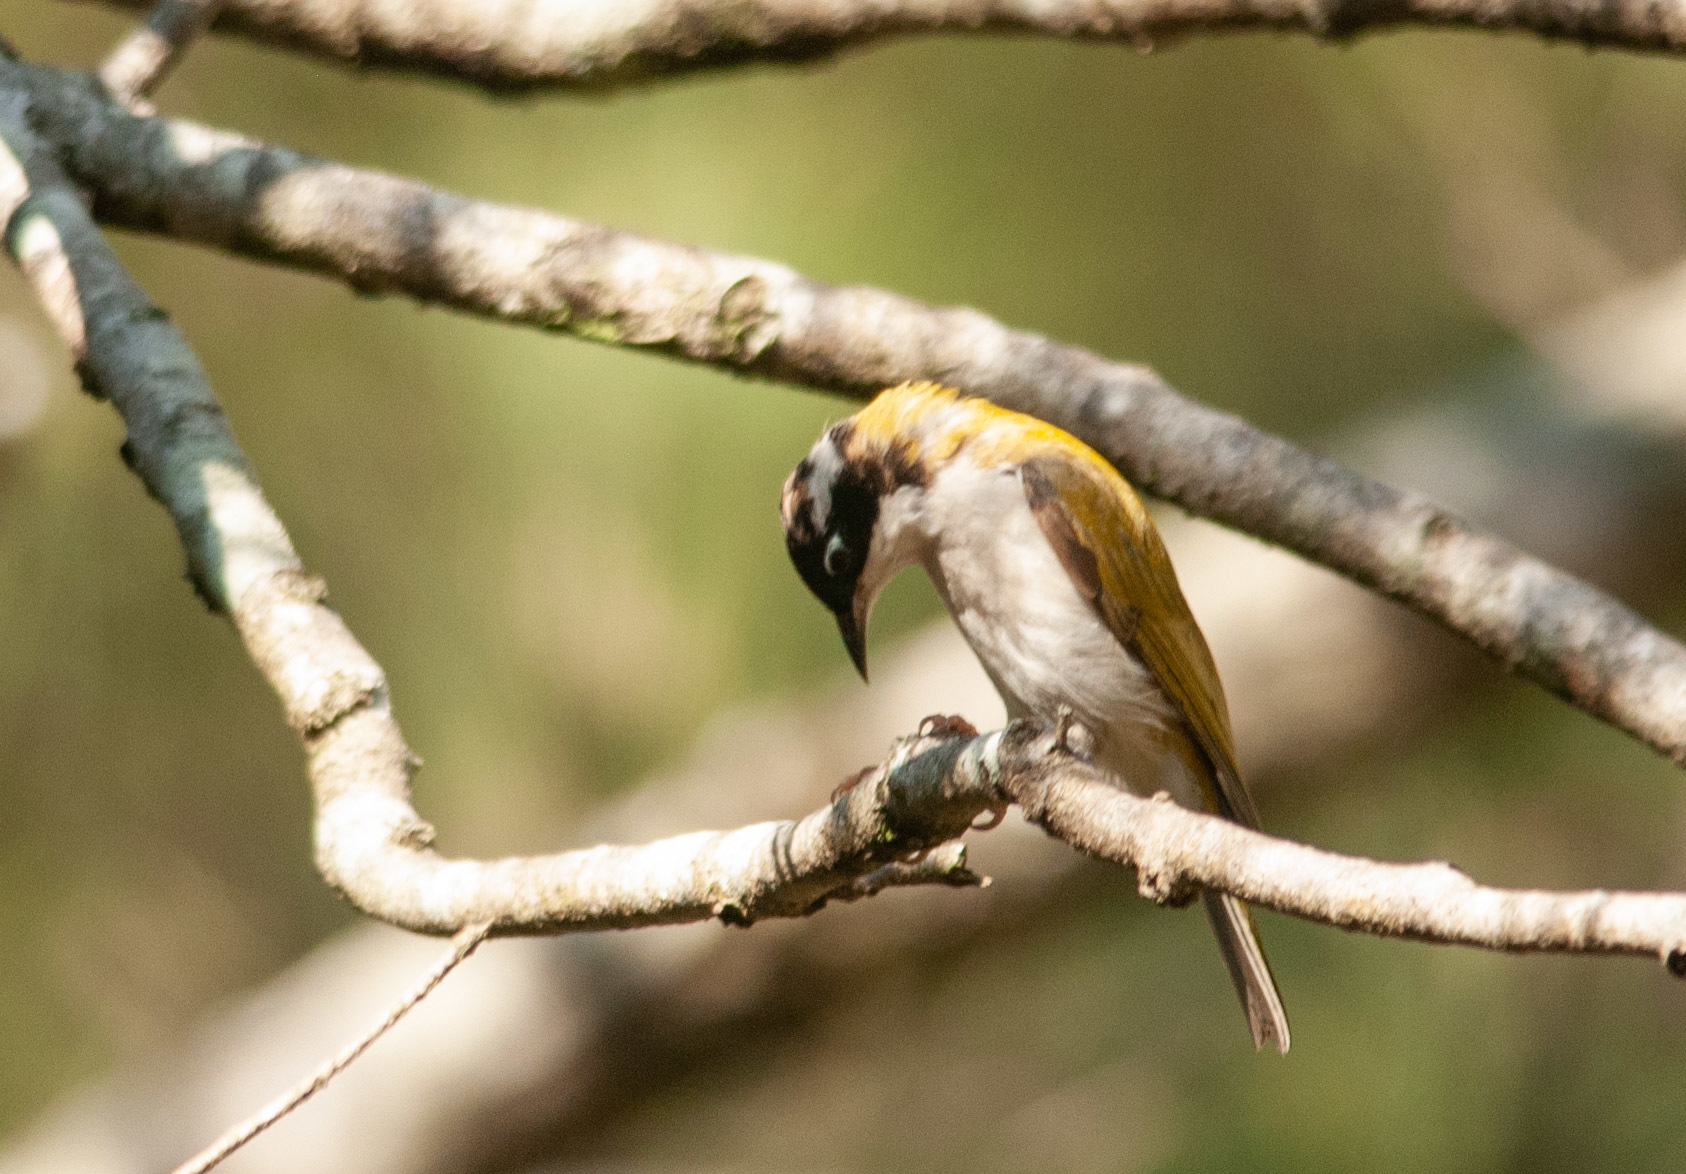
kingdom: Animalia
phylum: Chordata
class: Aves
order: Passeriformes
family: Meliphagidae
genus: Melithreptus
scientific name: Melithreptus albogularis
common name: White-throated honeyeater
